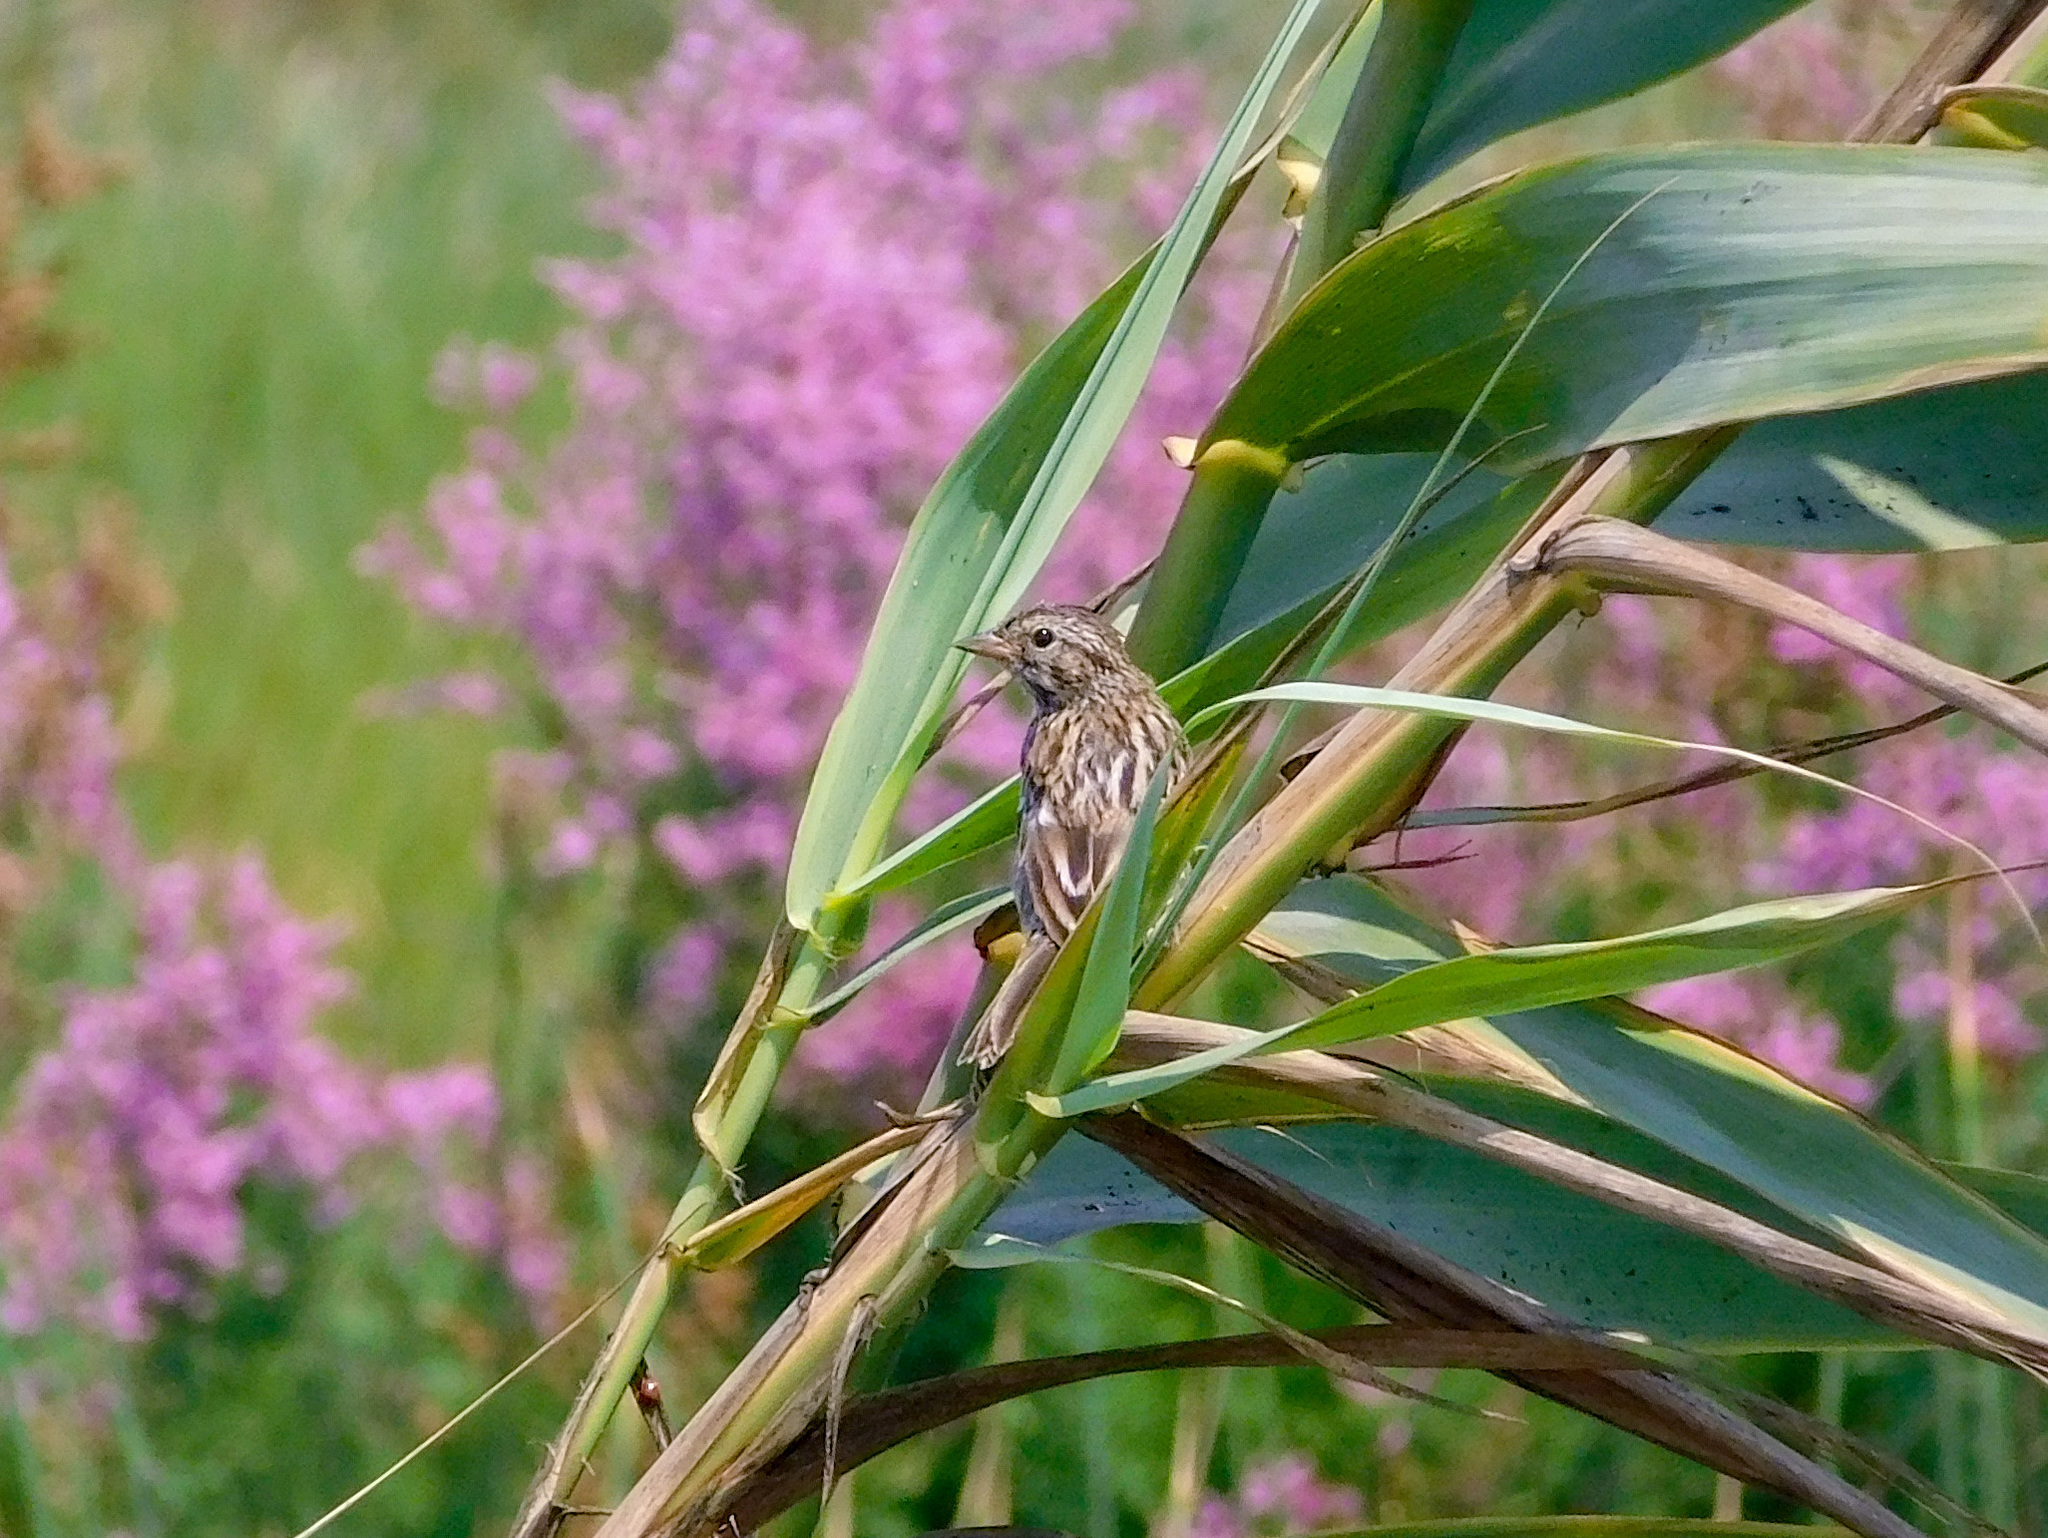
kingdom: Animalia
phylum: Chordata
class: Aves
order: Passeriformes
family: Passerellidae
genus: Passerculus
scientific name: Passerculus sandwichensis
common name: Savannah sparrow
